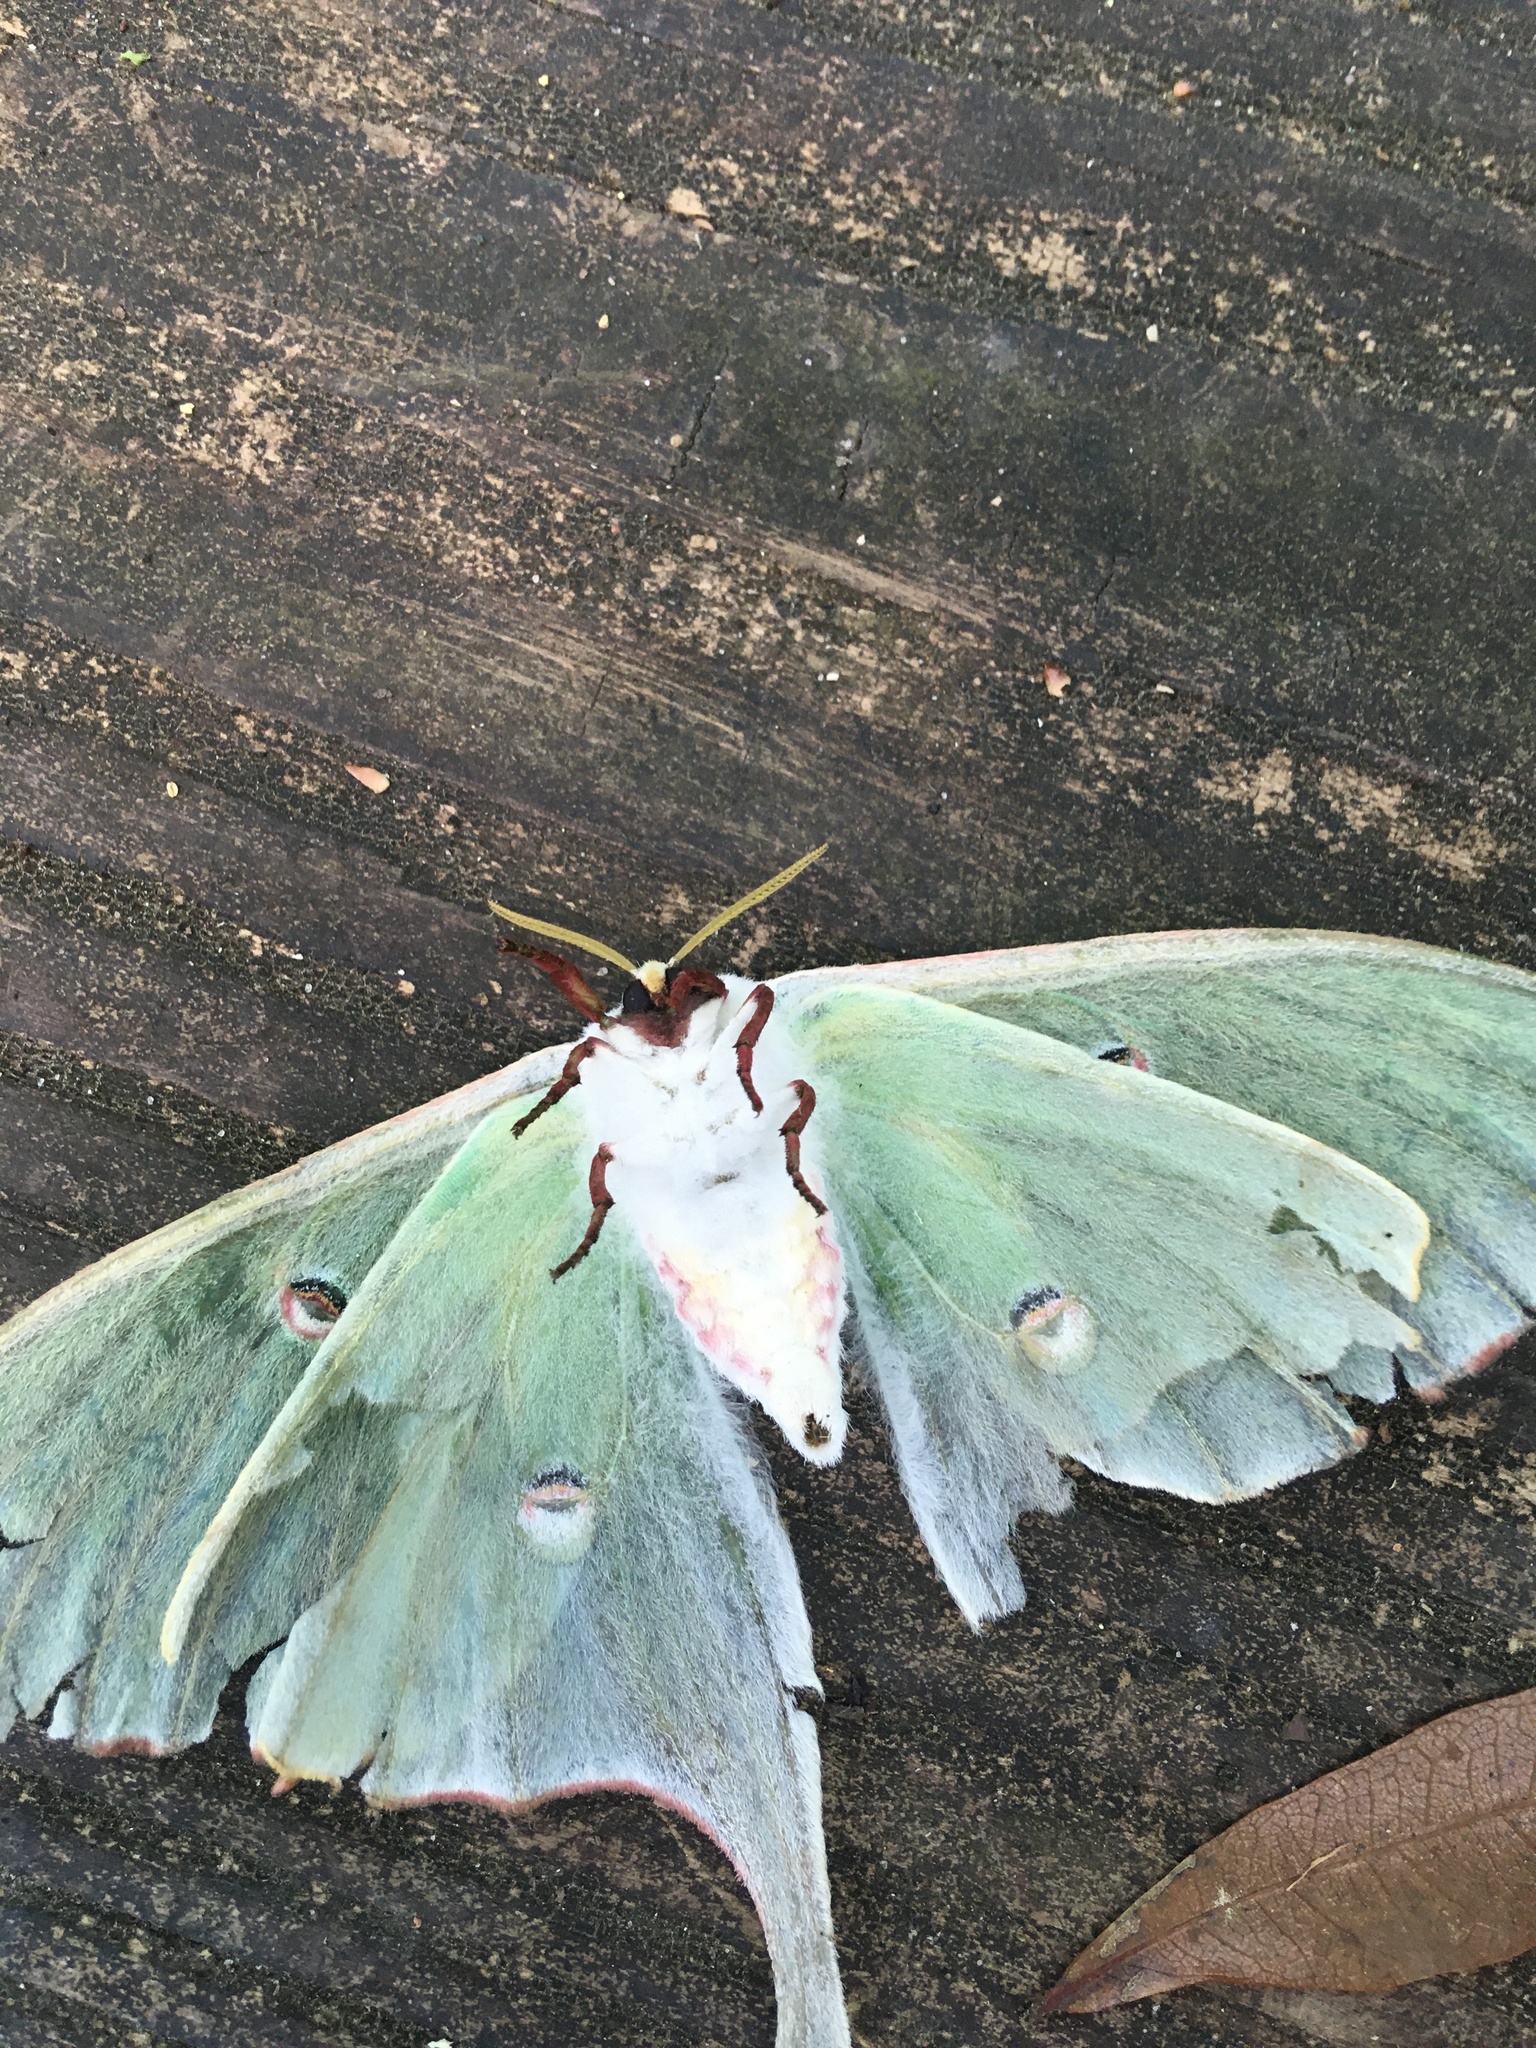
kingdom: Animalia
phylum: Arthropoda
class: Insecta
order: Lepidoptera
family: Saturniidae
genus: Actias
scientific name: Actias luna
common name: Luna moth
